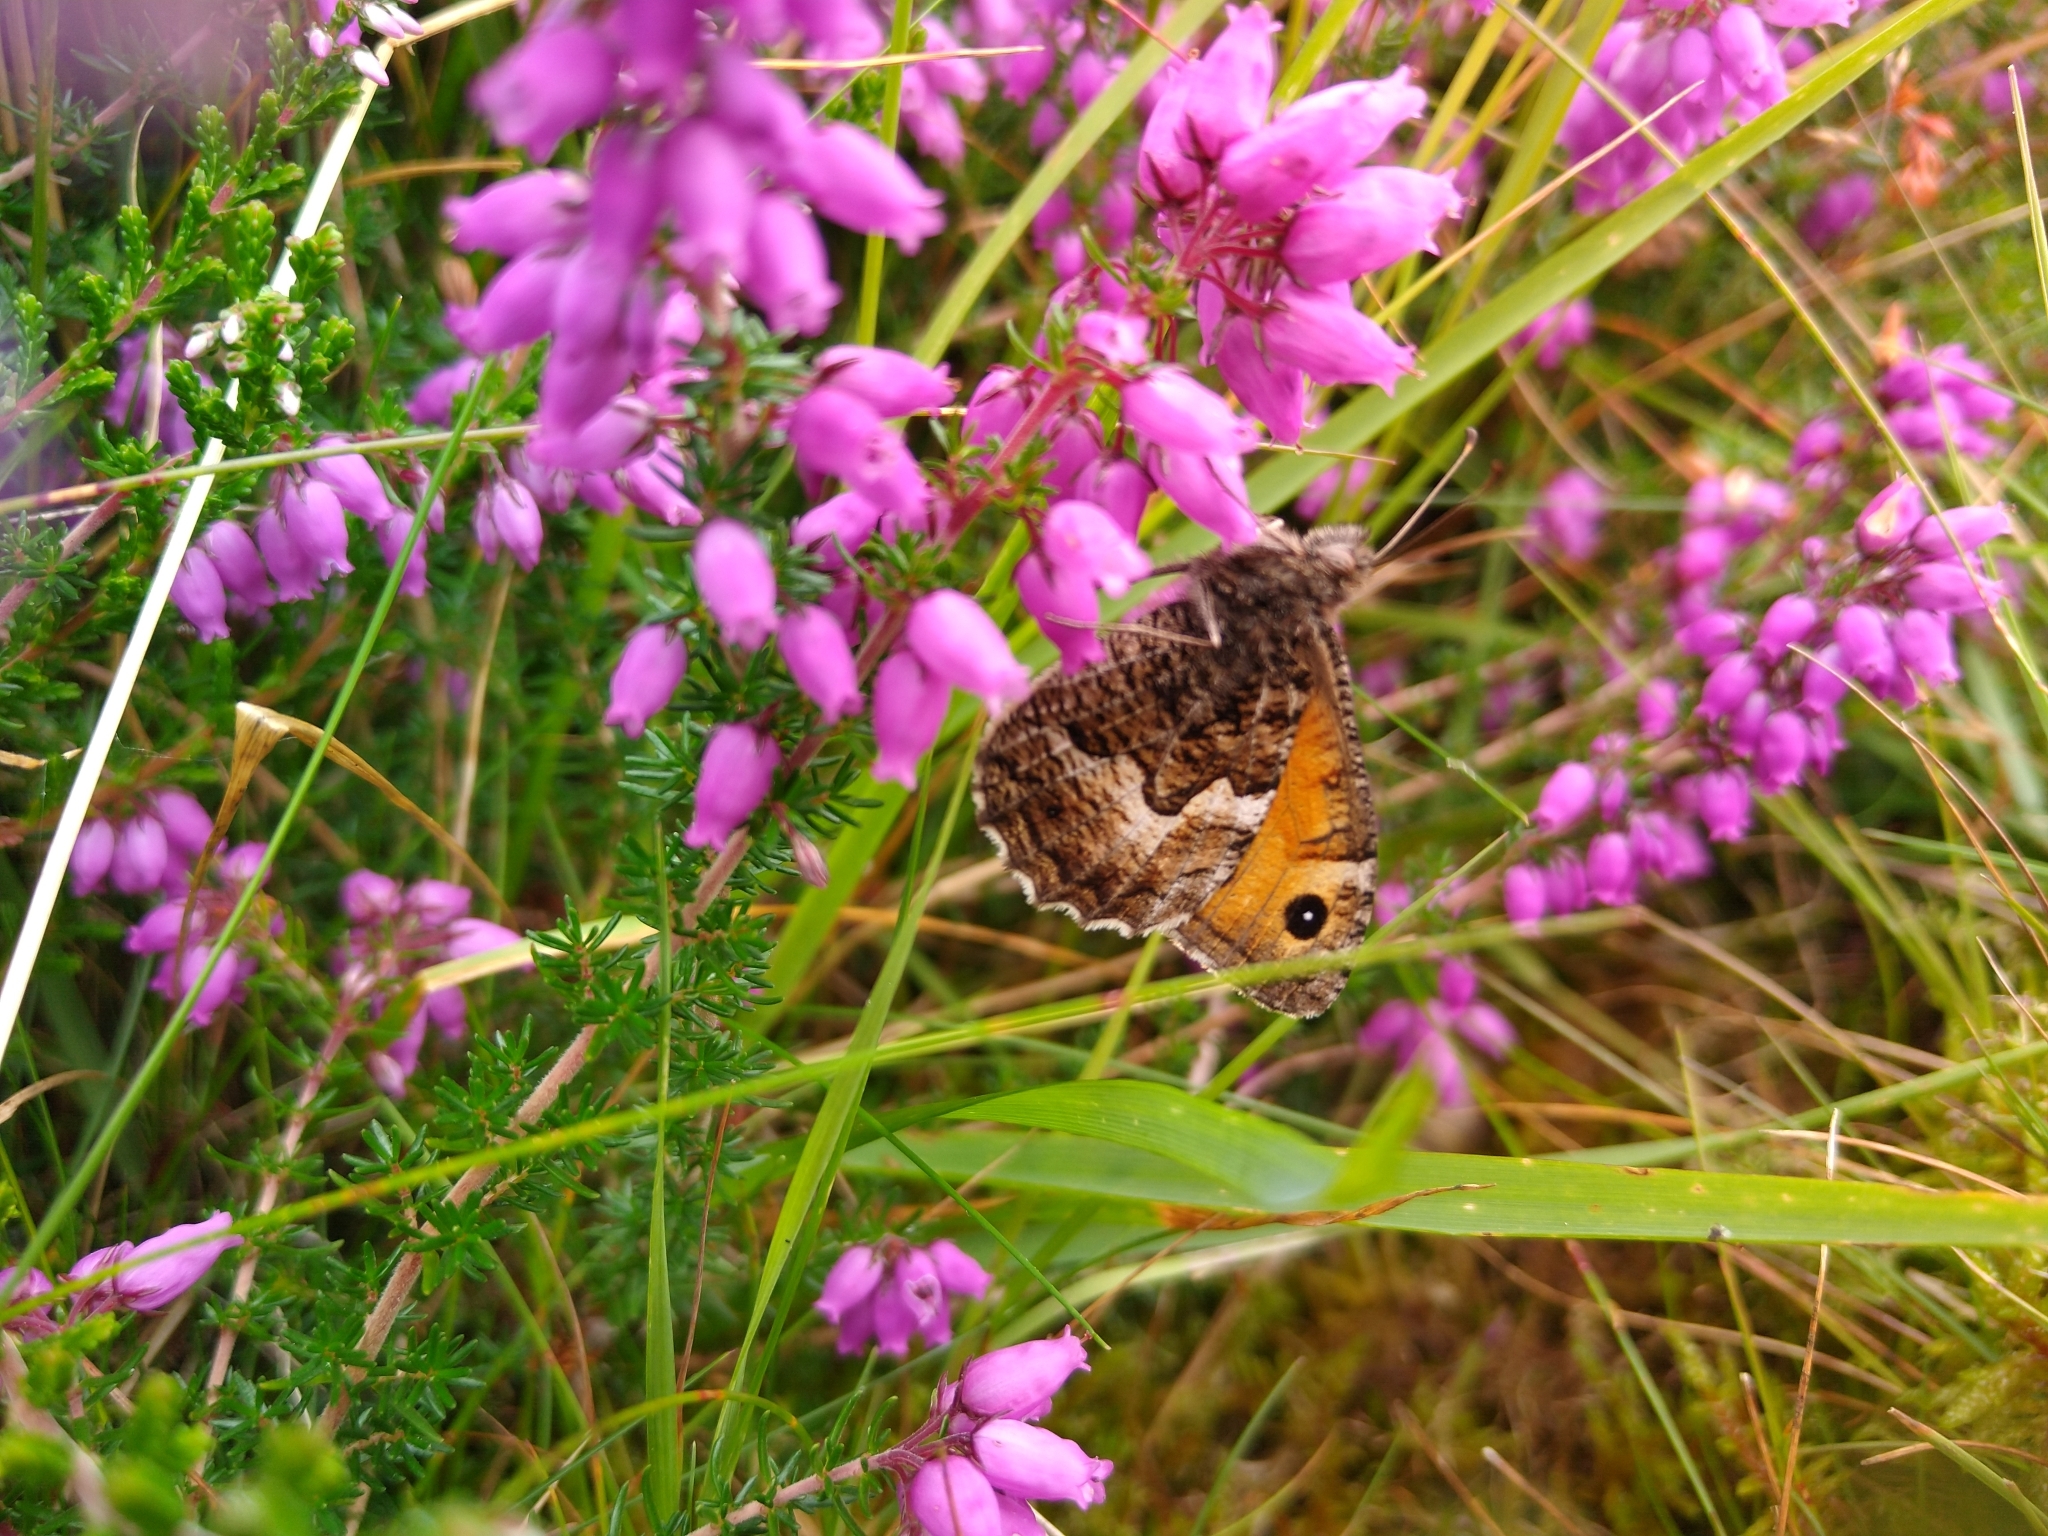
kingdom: Animalia
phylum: Arthropoda
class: Insecta
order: Lepidoptera
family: Nymphalidae
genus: Hipparchia
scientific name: Hipparchia semele
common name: Grayling
